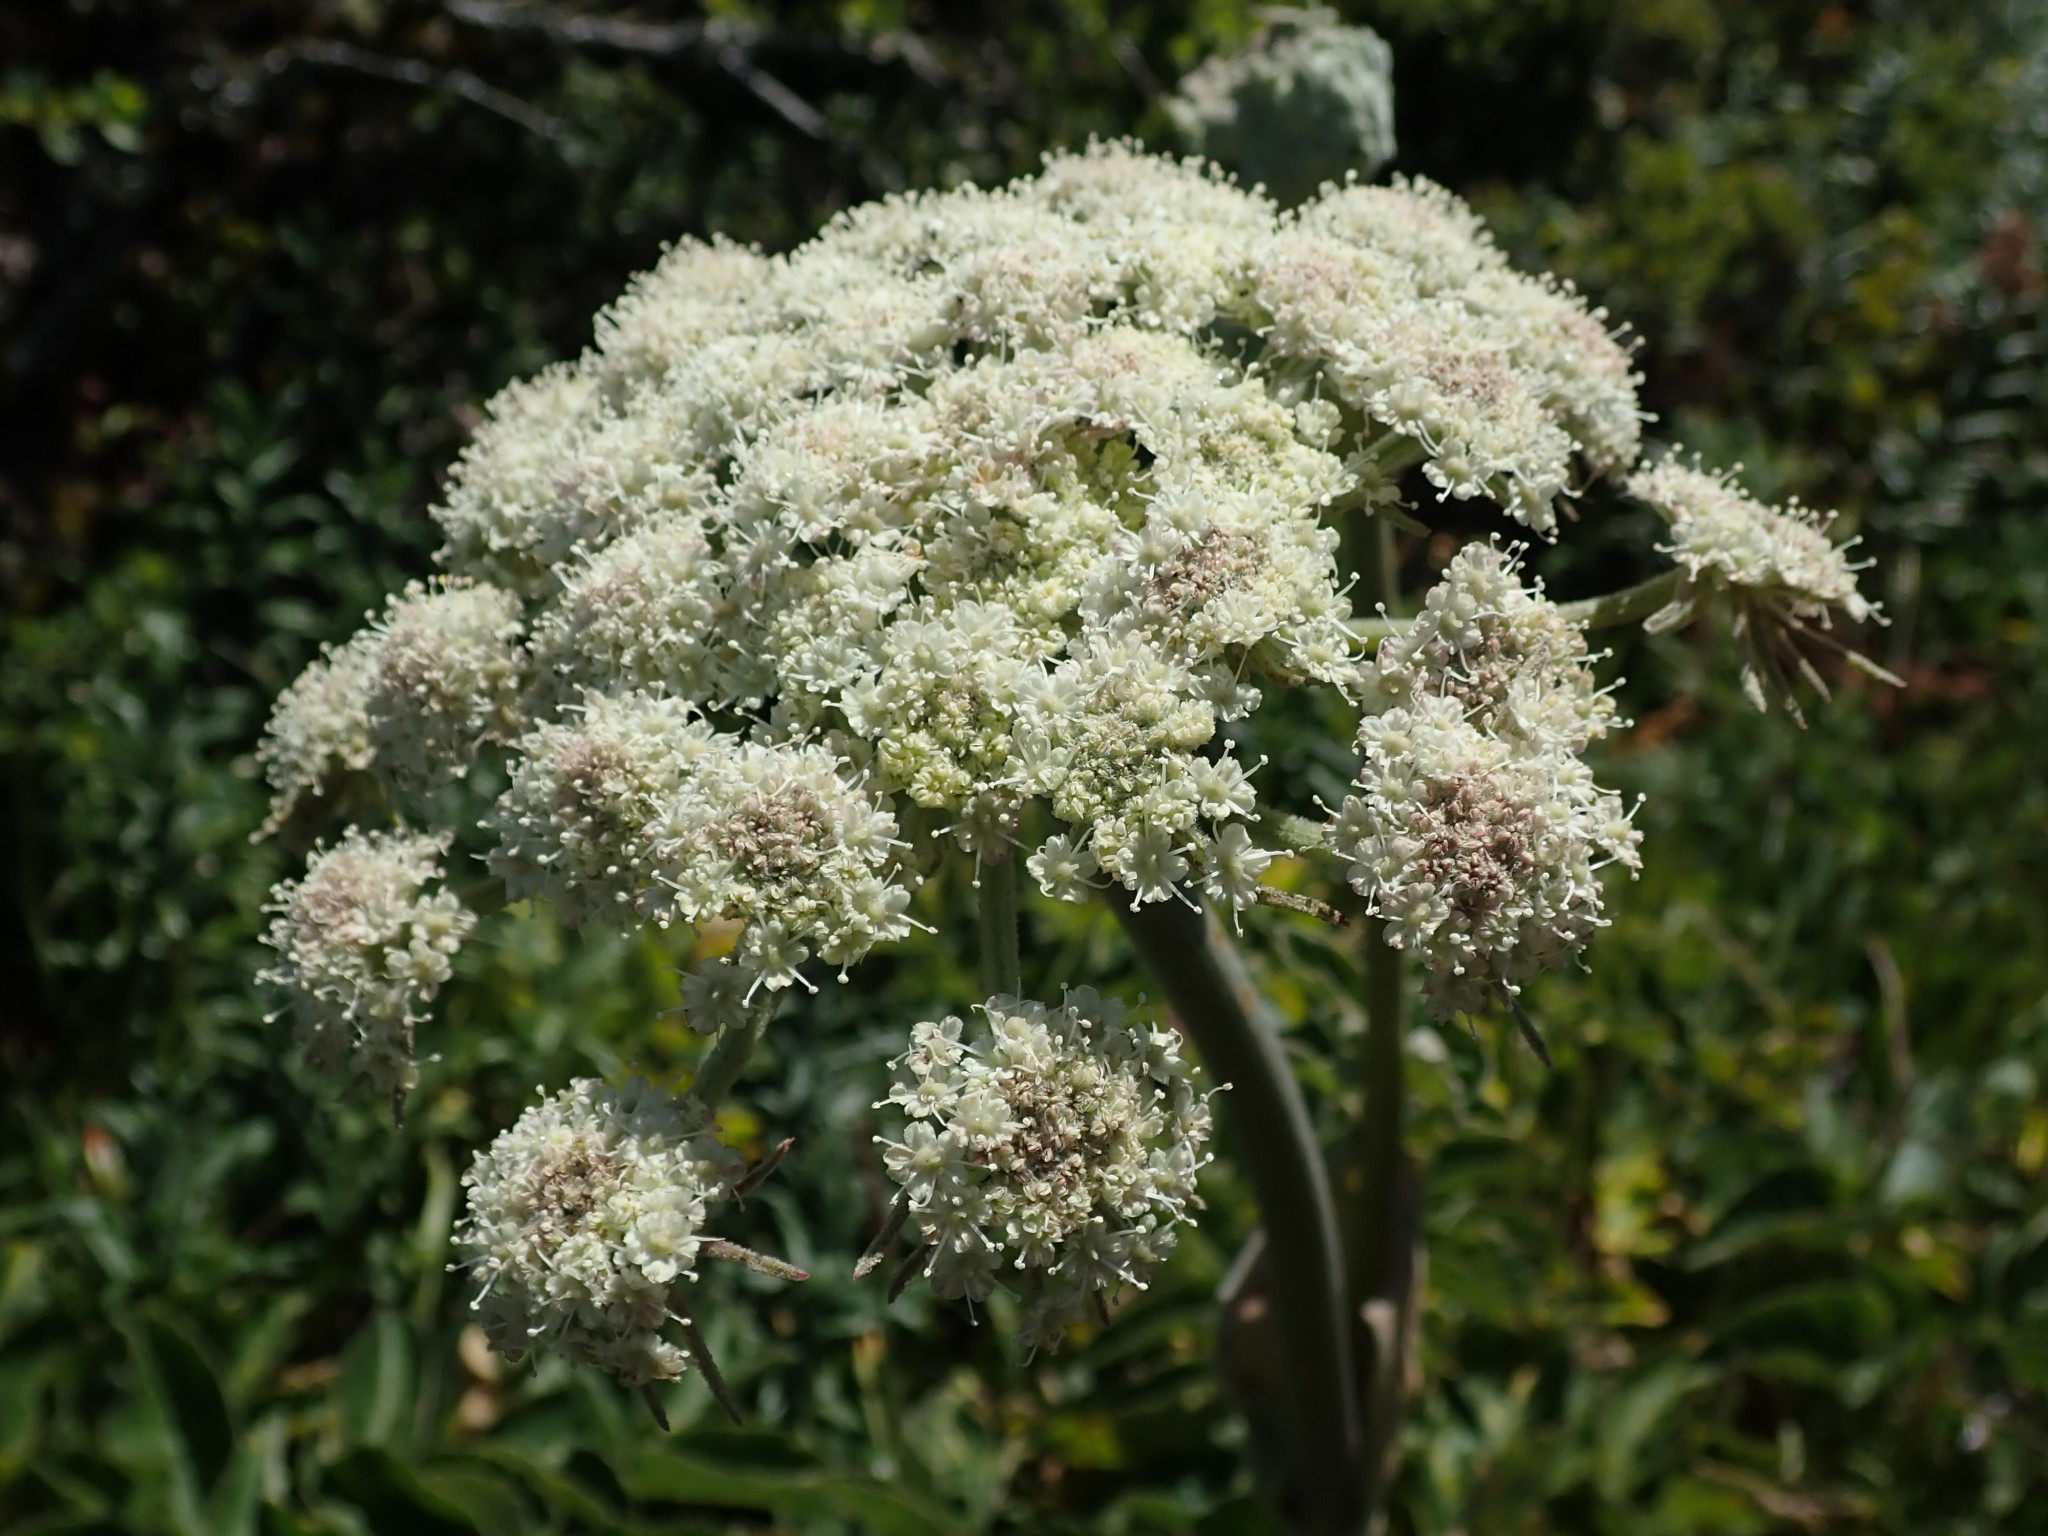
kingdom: Plantae
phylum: Tracheophyta
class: Magnoliopsida
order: Apiales
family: Apiaceae
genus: Angelica
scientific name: Angelica hendersonii
